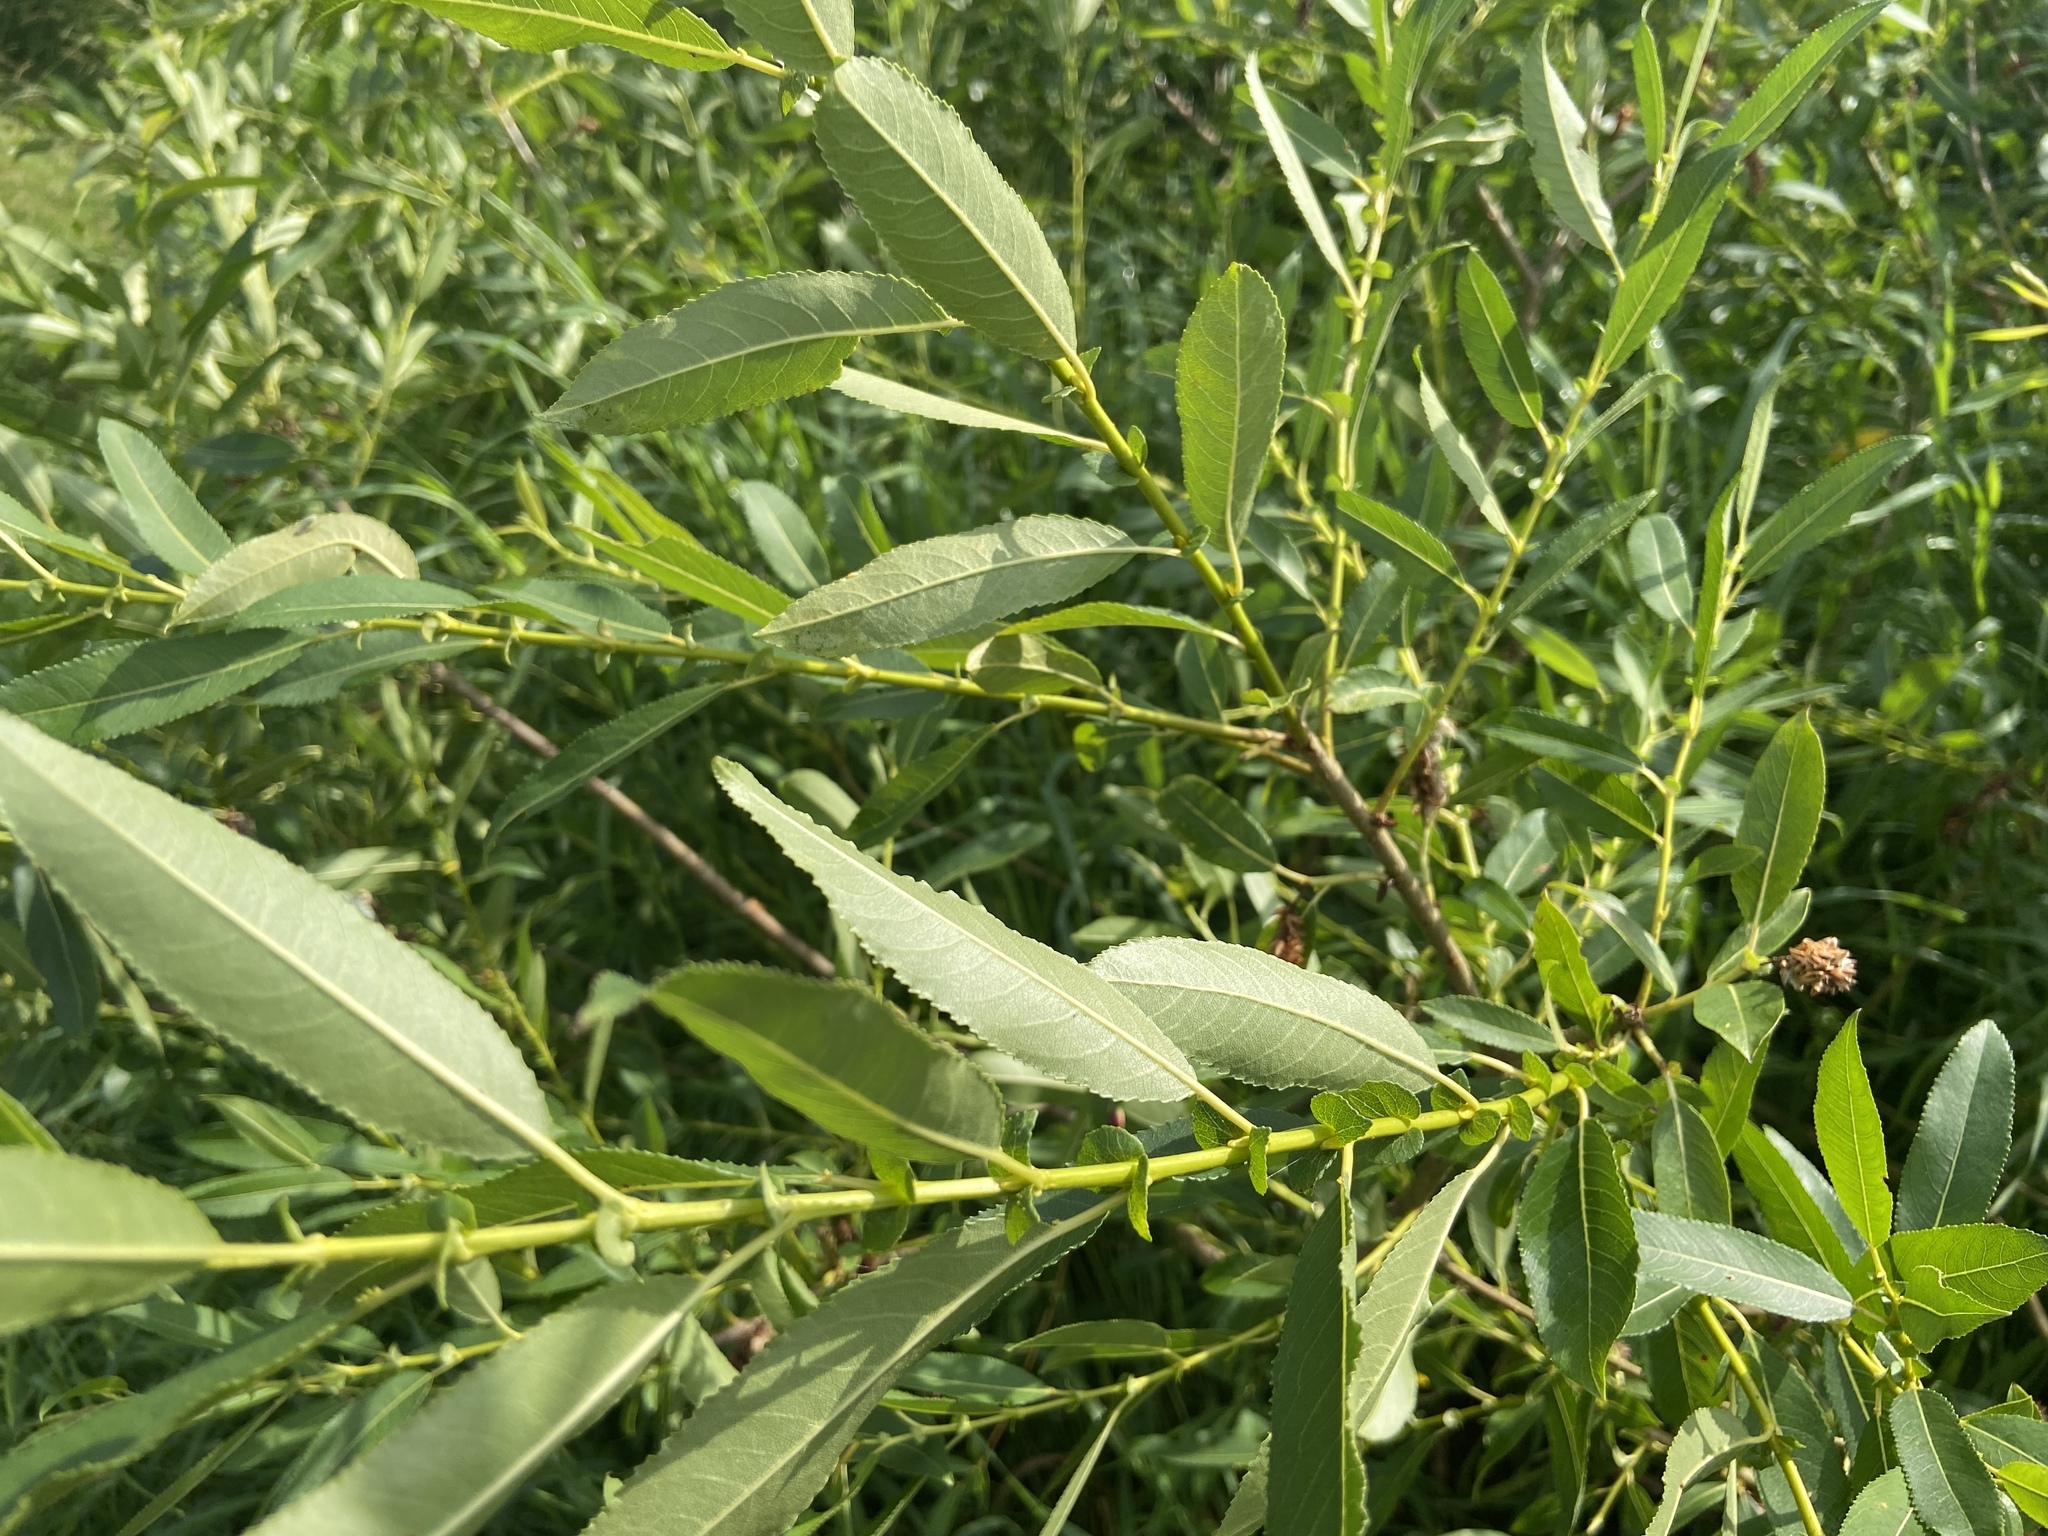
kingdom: Plantae
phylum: Tracheophyta
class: Magnoliopsida
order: Malpighiales
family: Salicaceae
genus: Salix
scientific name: Salix triandra
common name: Almond willow
